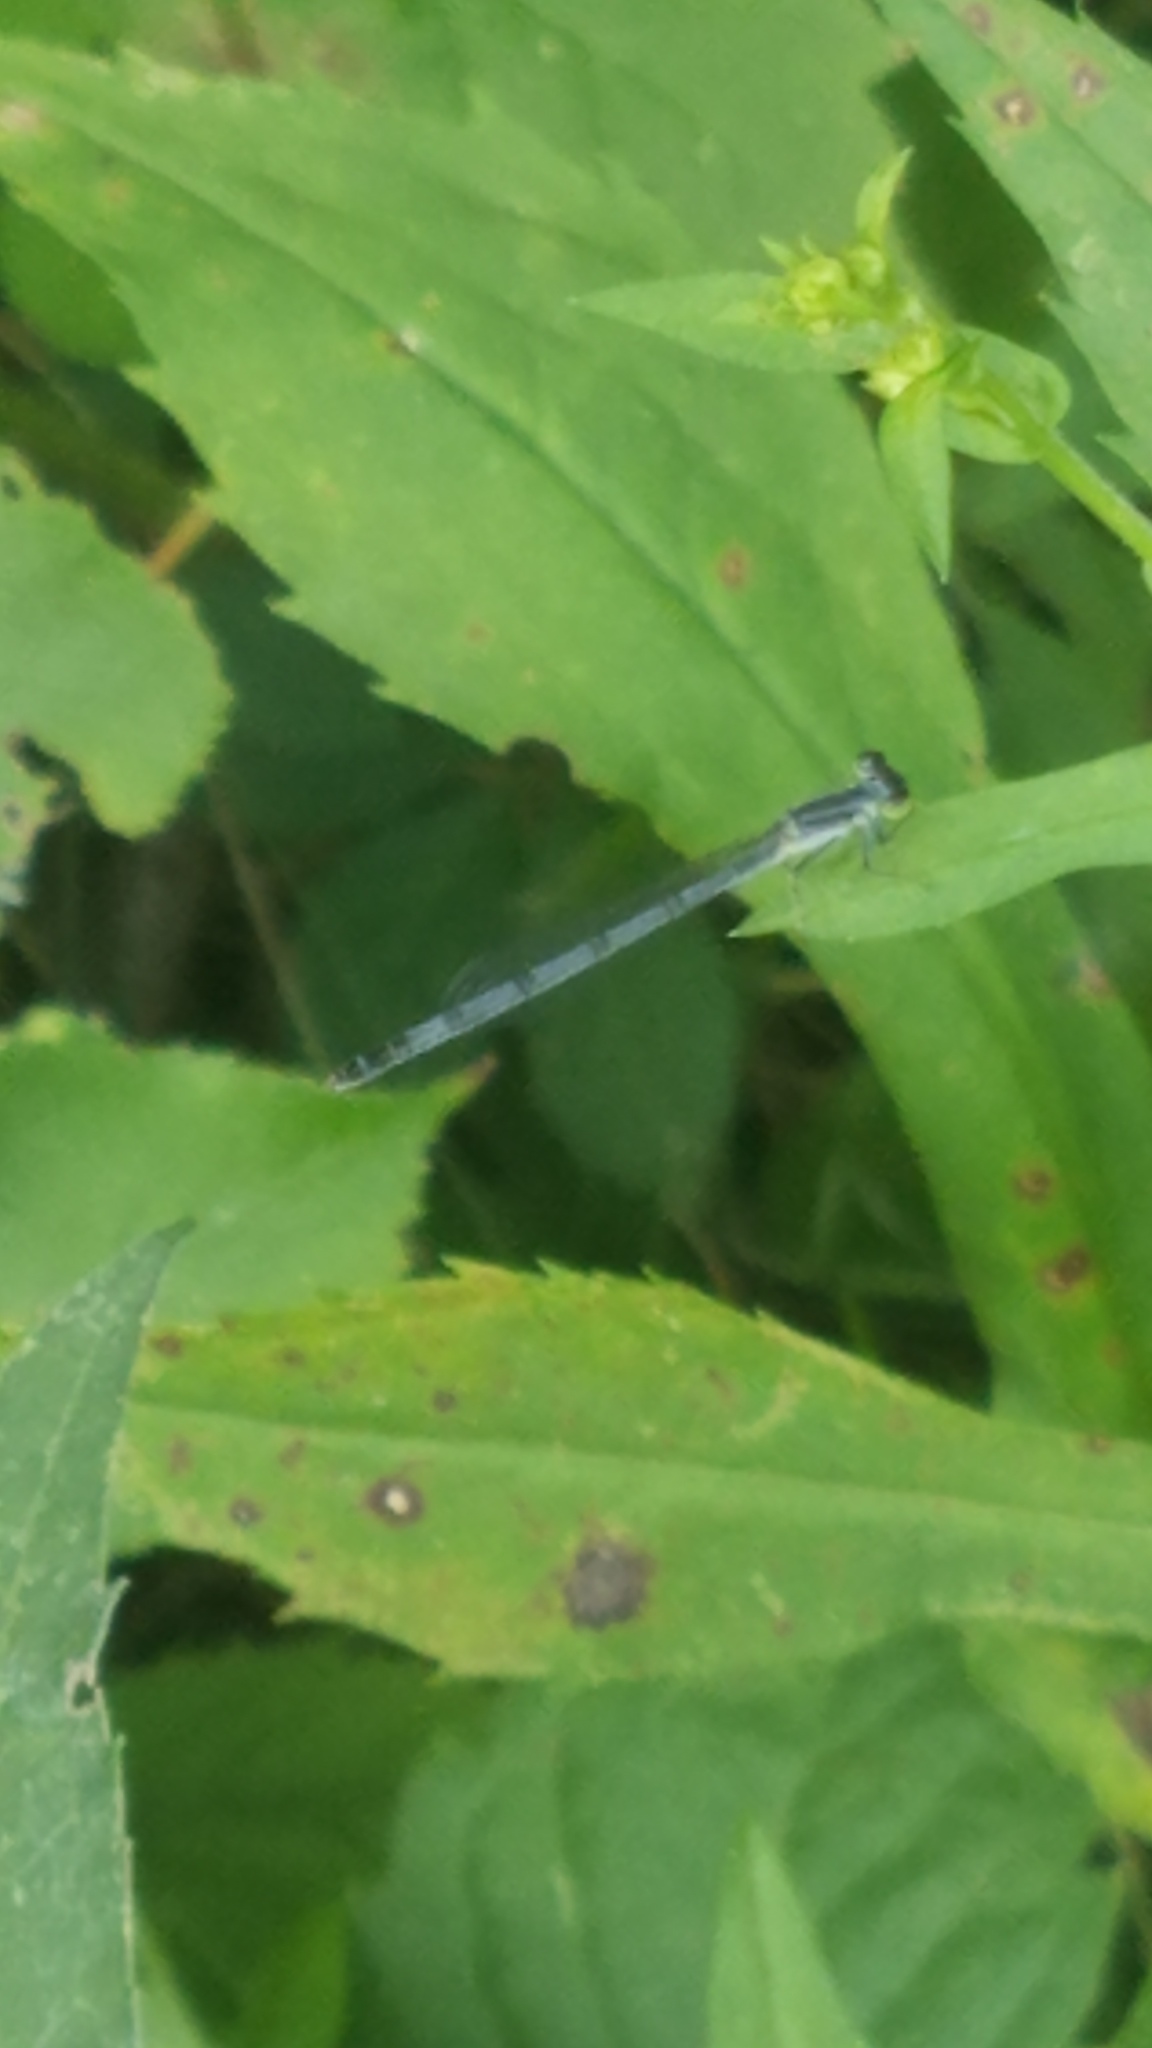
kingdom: Animalia
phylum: Arthropoda
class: Insecta
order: Odonata
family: Coenagrionidae
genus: Ischnura
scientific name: Ischnura verticalis
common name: Eastern forktail
